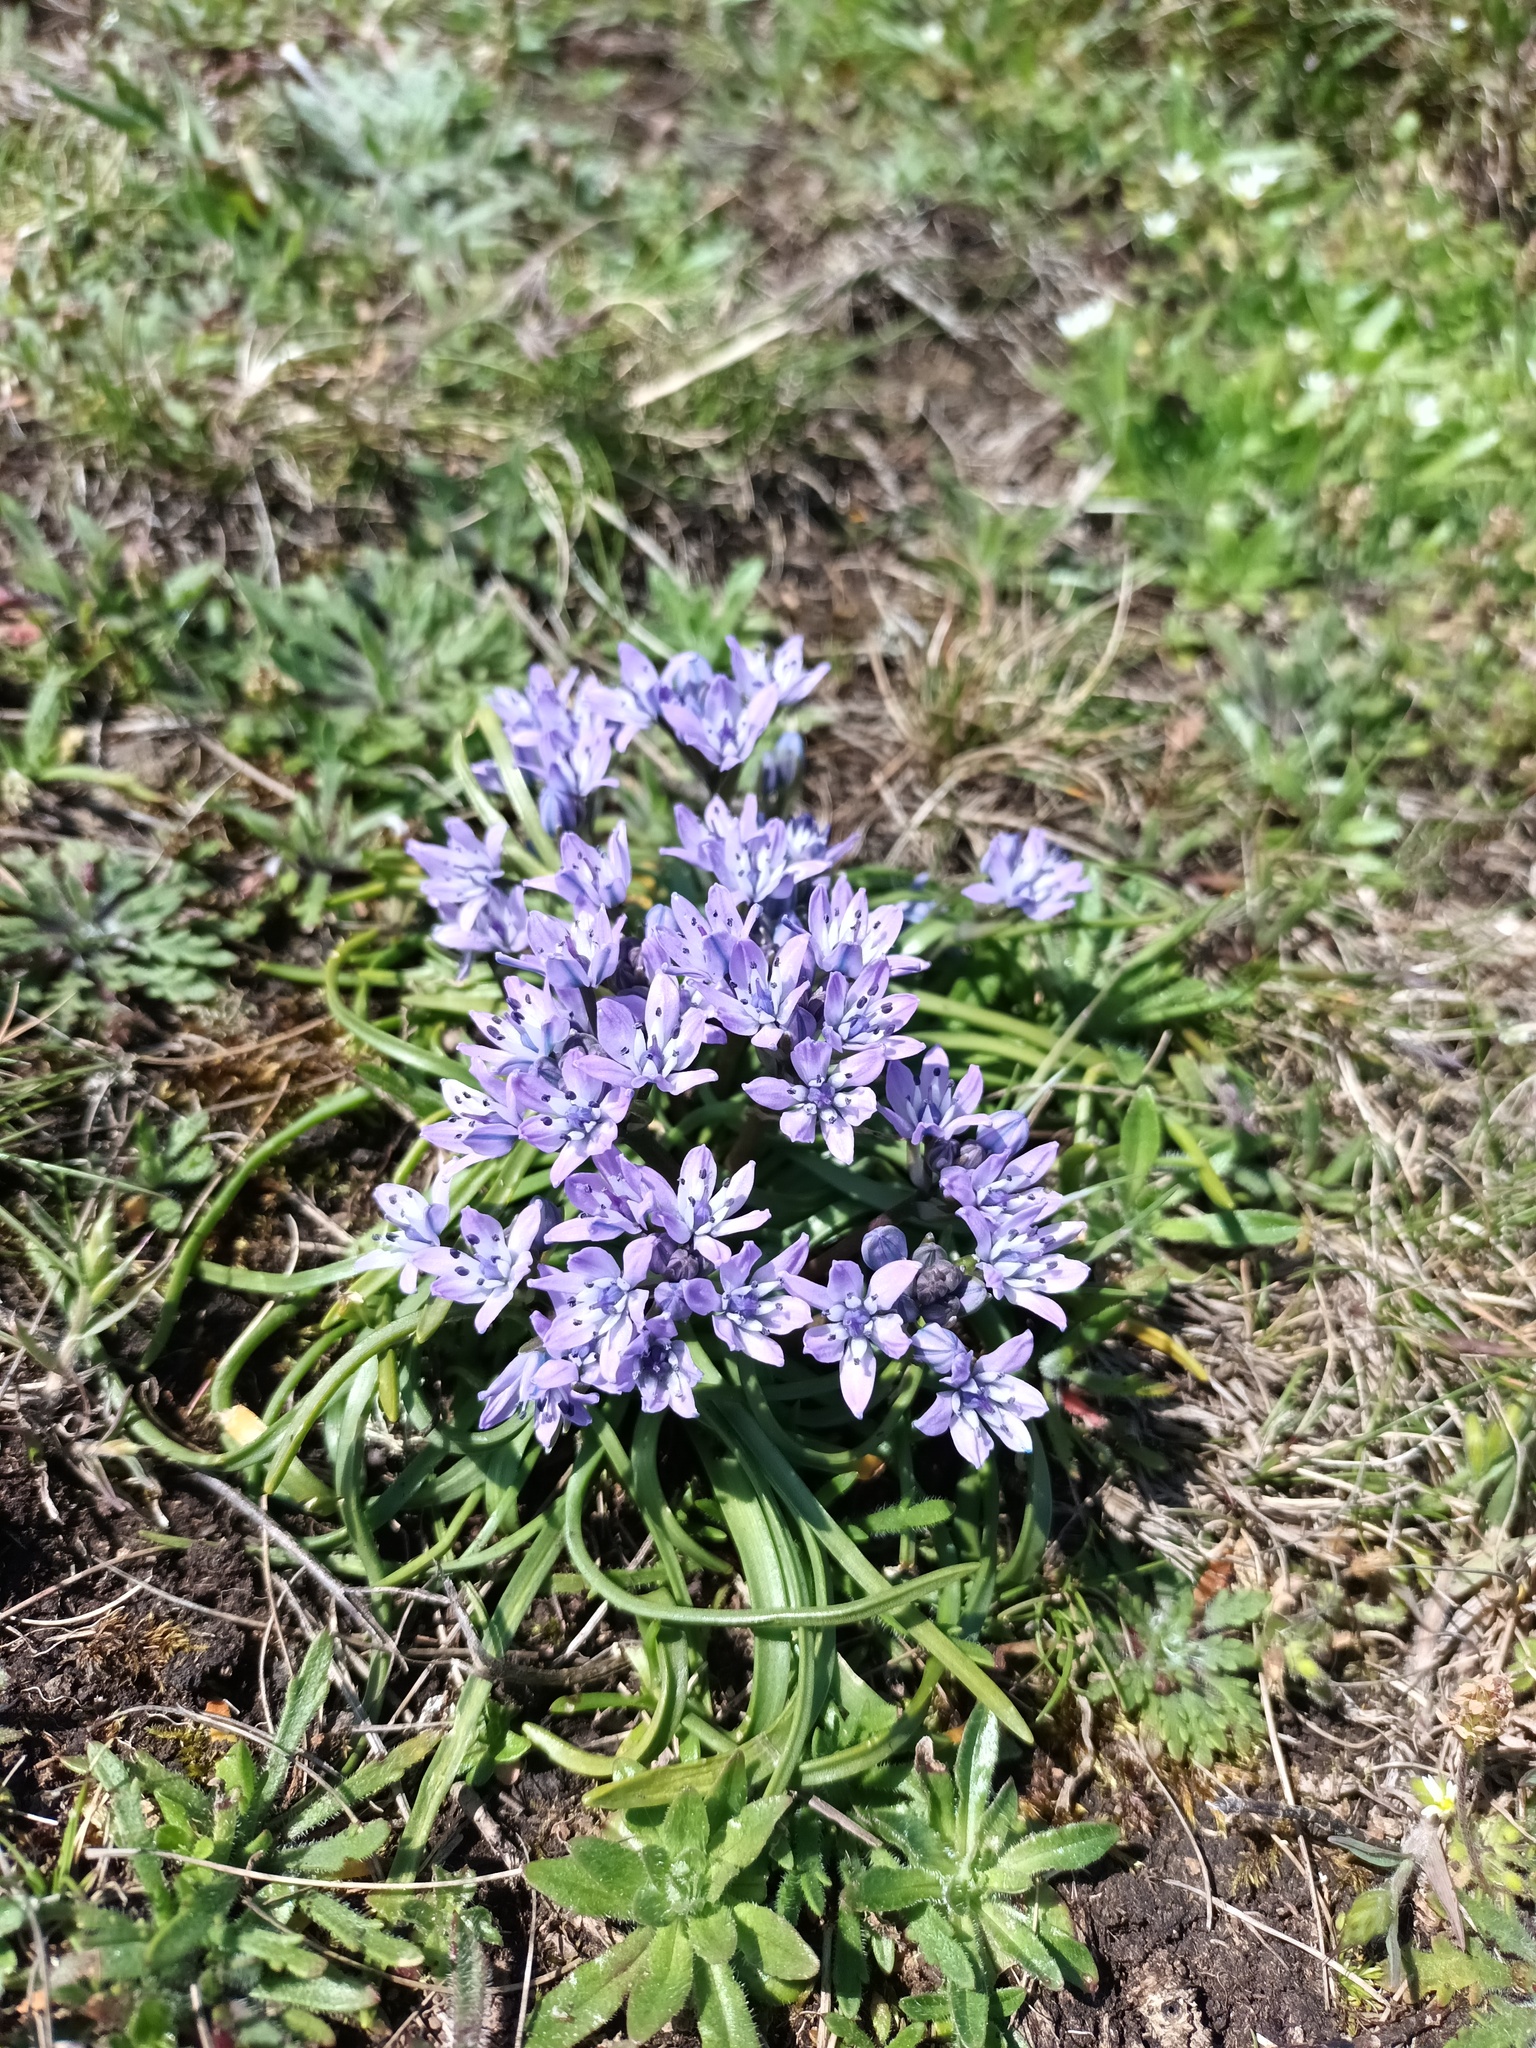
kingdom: Plantae
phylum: Tracheophyta
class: Liliopsida
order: Asparagales
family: Asparagaceae
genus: Scilla
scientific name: Scilla verna
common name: Spring squill
